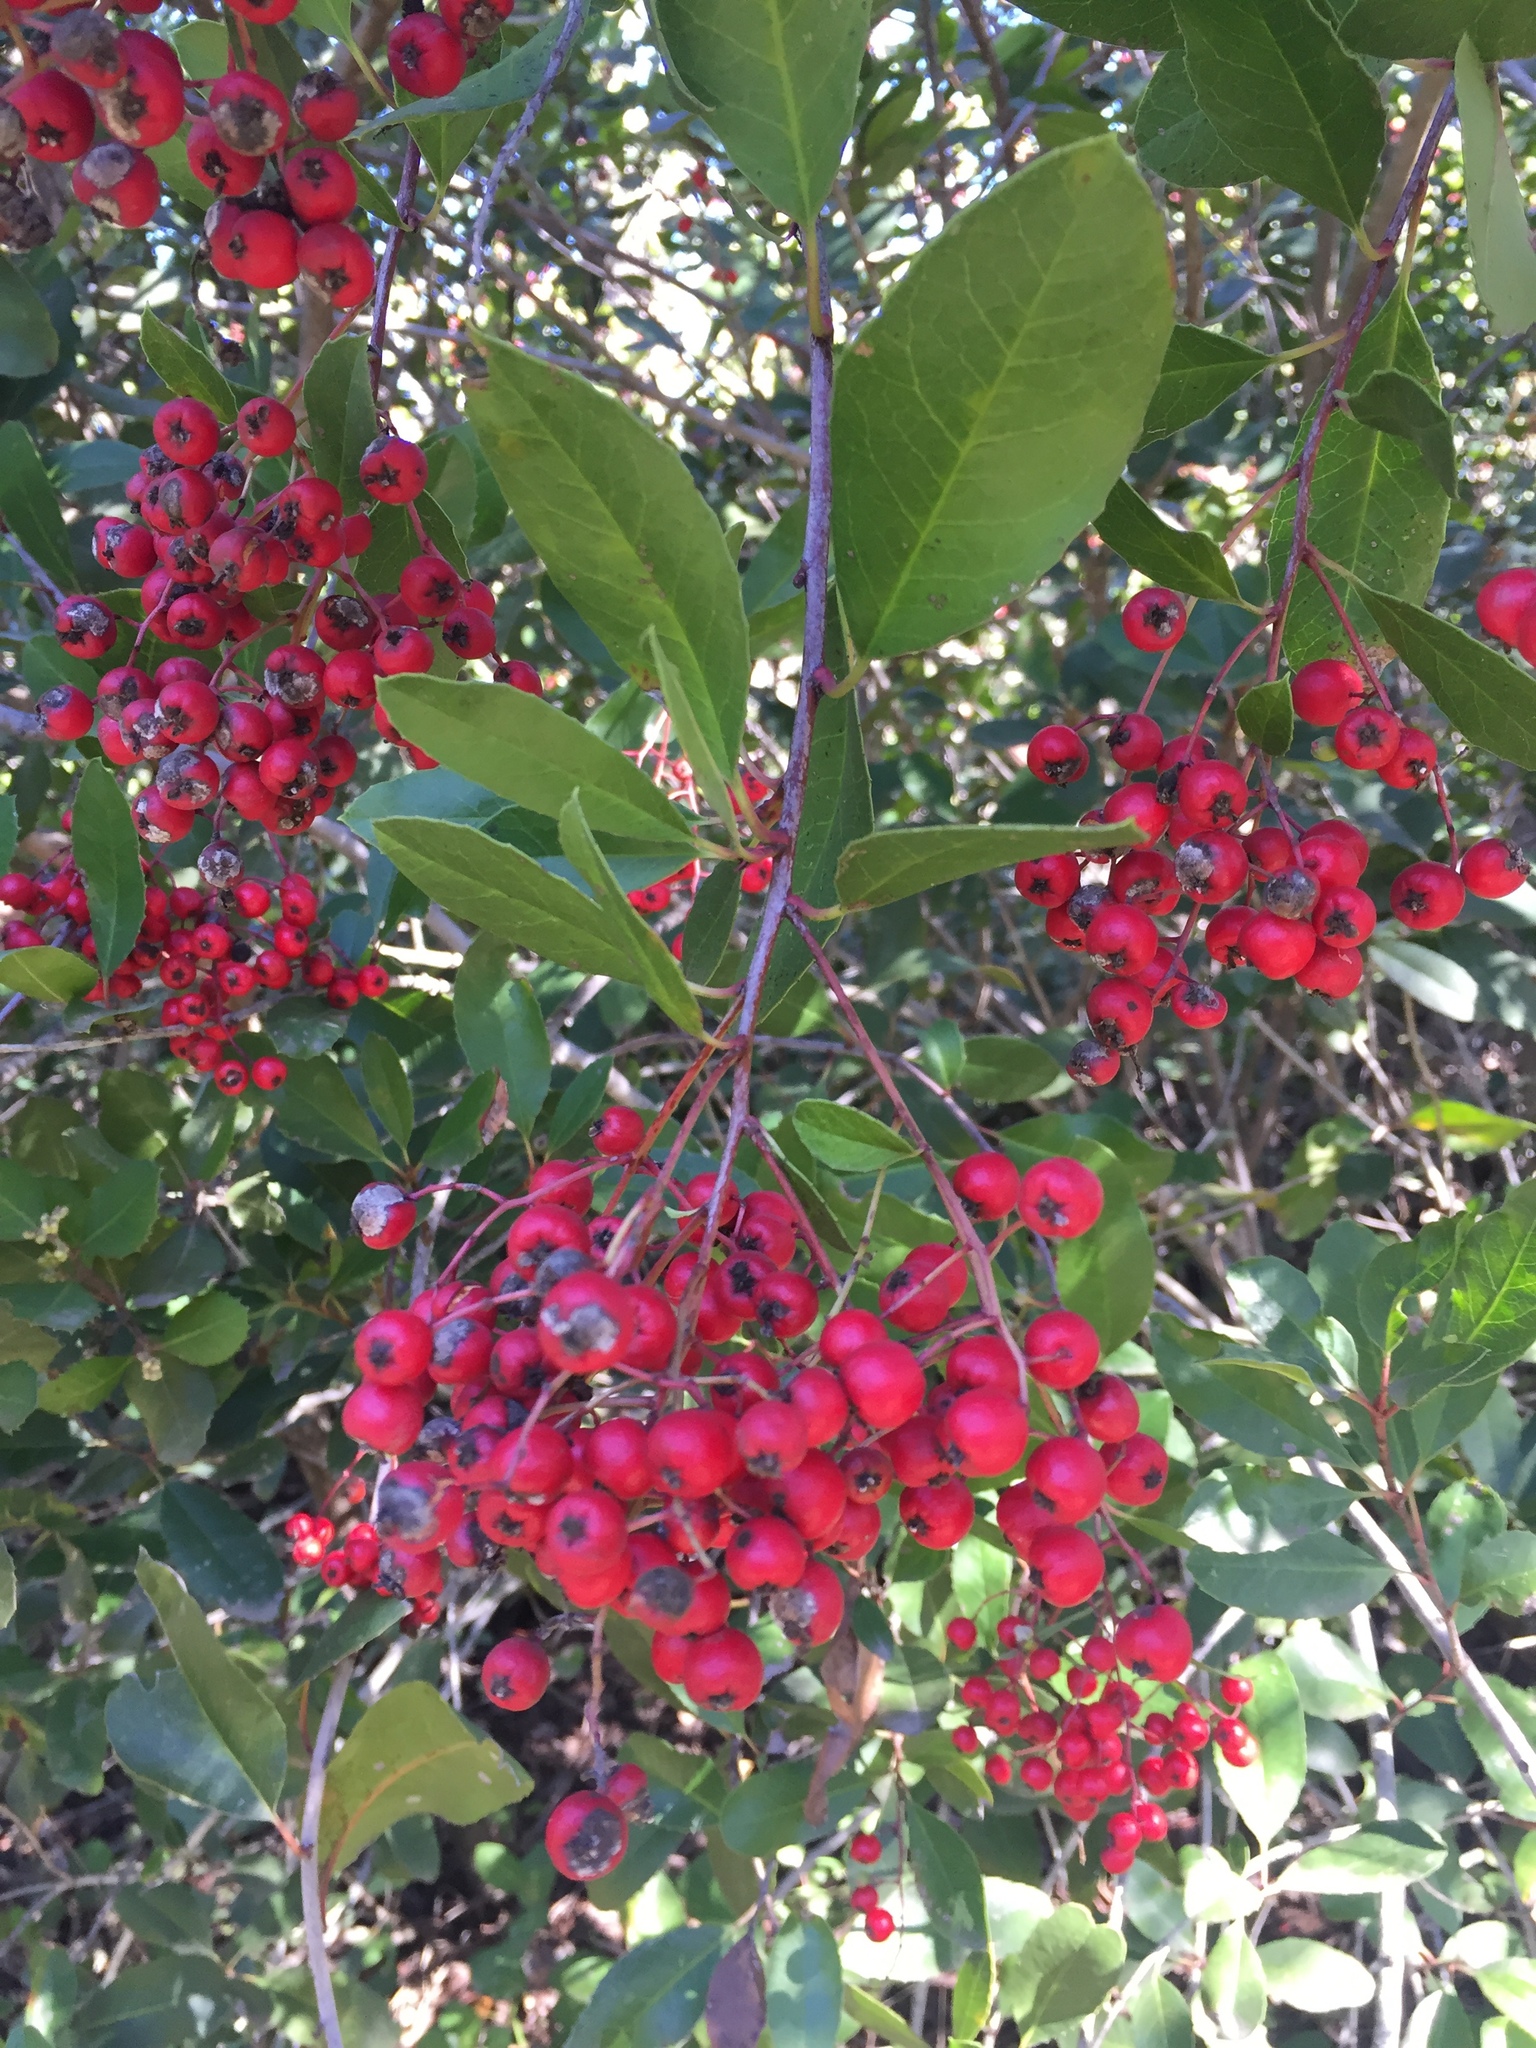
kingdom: Plantae
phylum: Tracheophyta
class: Magnoliopsida
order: Rosales
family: Rosaceae
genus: Heteromeles
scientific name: Heteromeles arbutifolia
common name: California-holly
